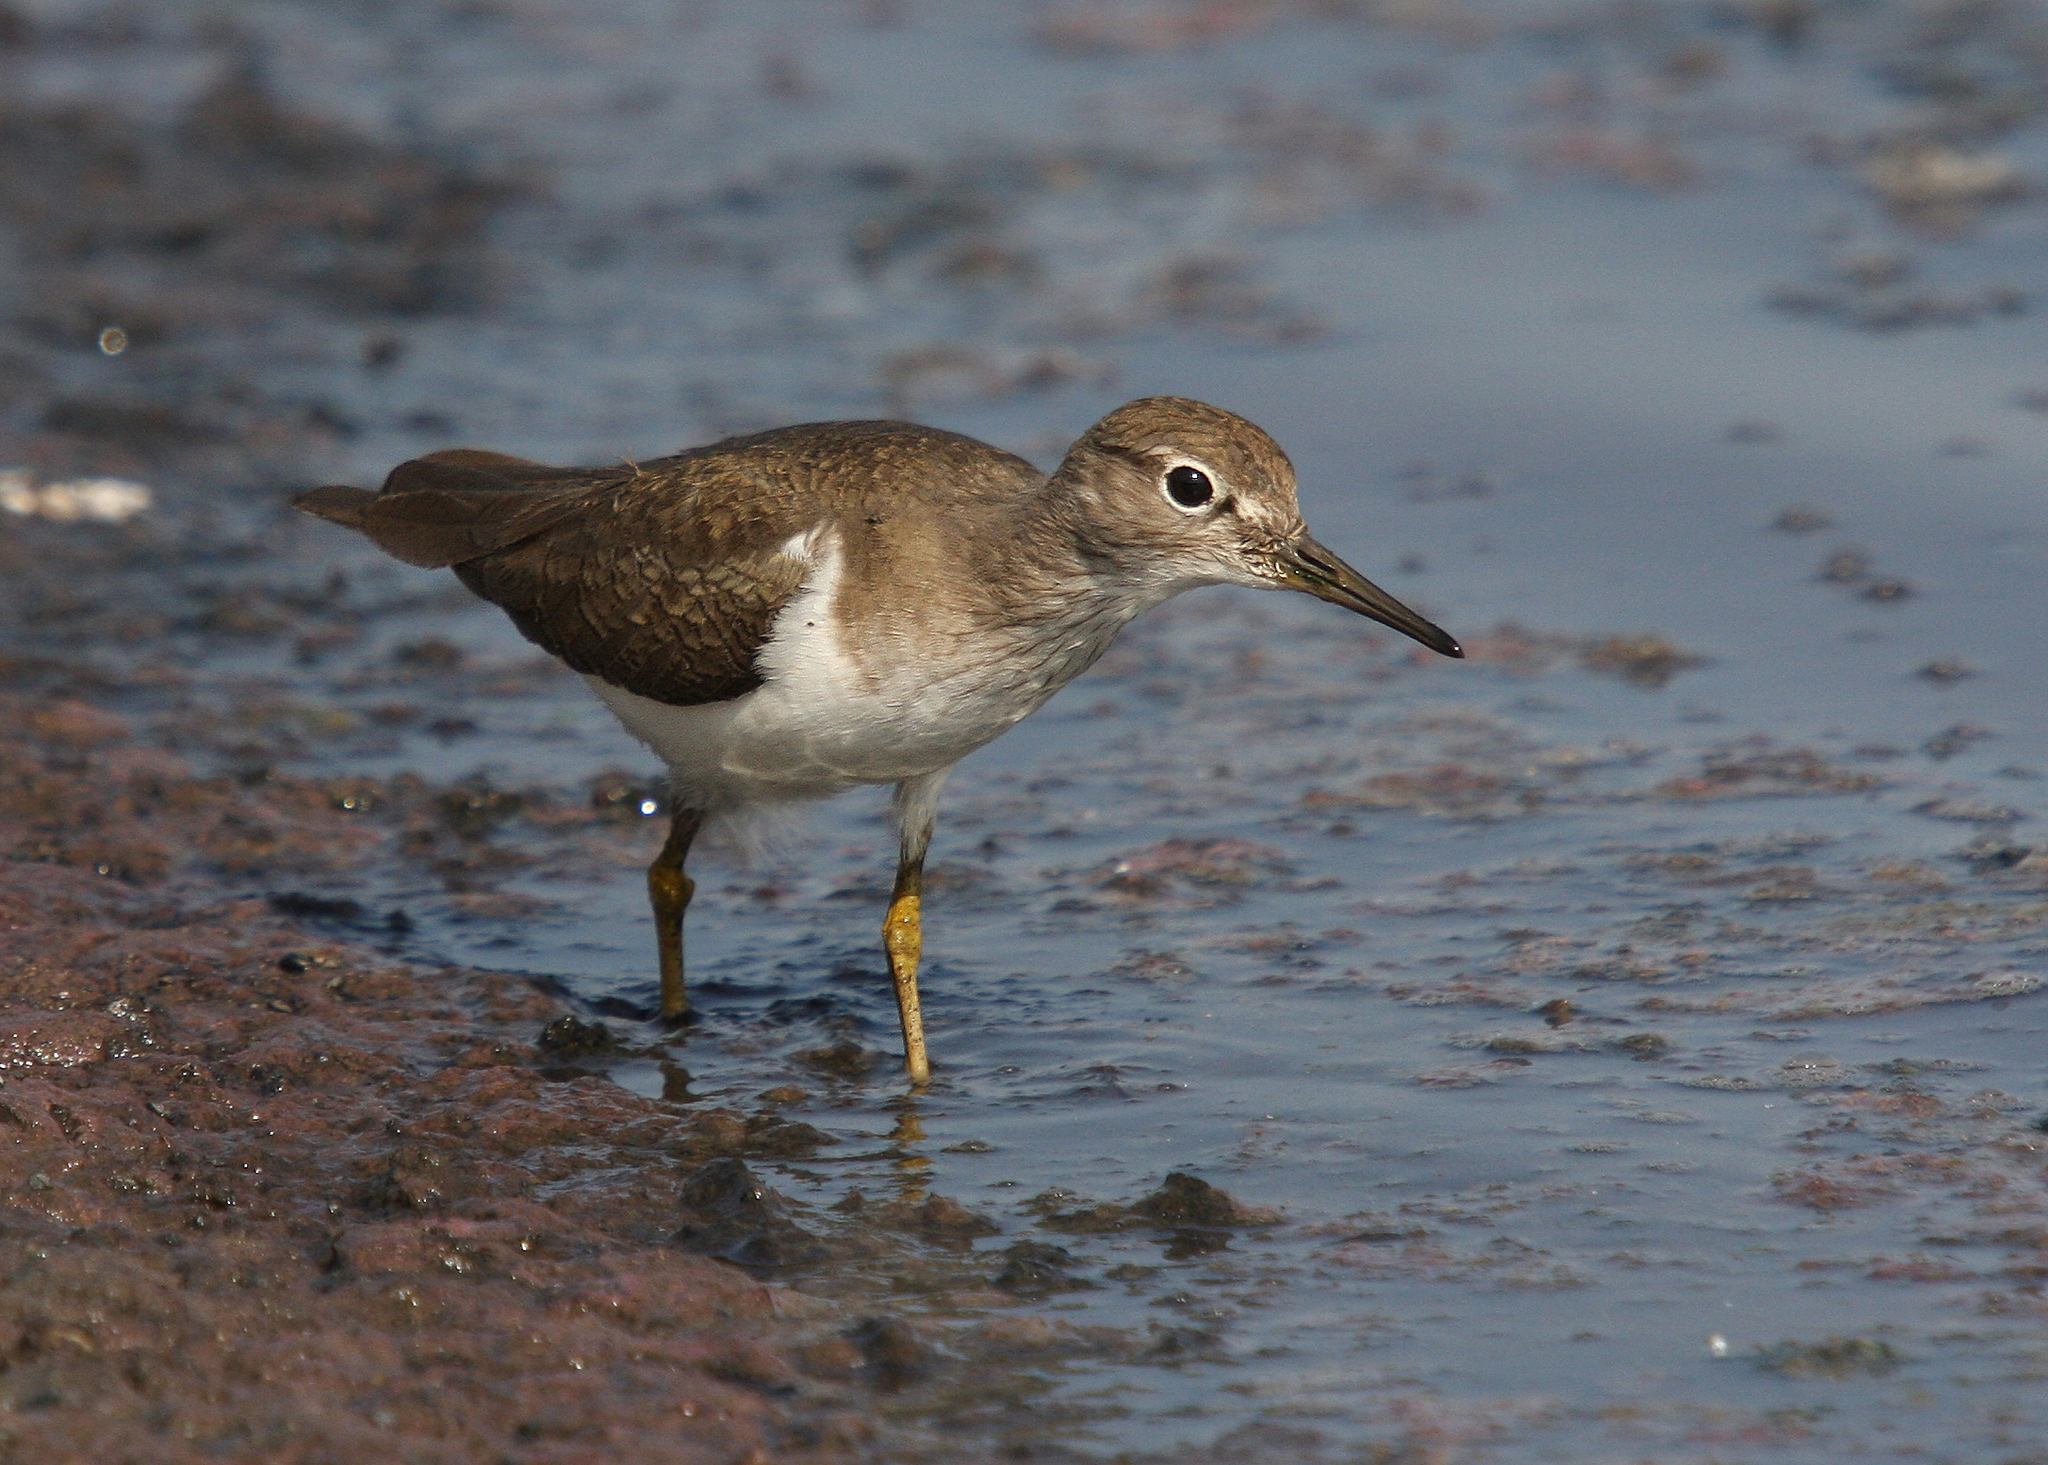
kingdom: Animalia
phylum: Chordata
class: Aves
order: Charadriiformes
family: Scolopacidae
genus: Actitis
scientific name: Actitis hypoleucos
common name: Common sandpiper
